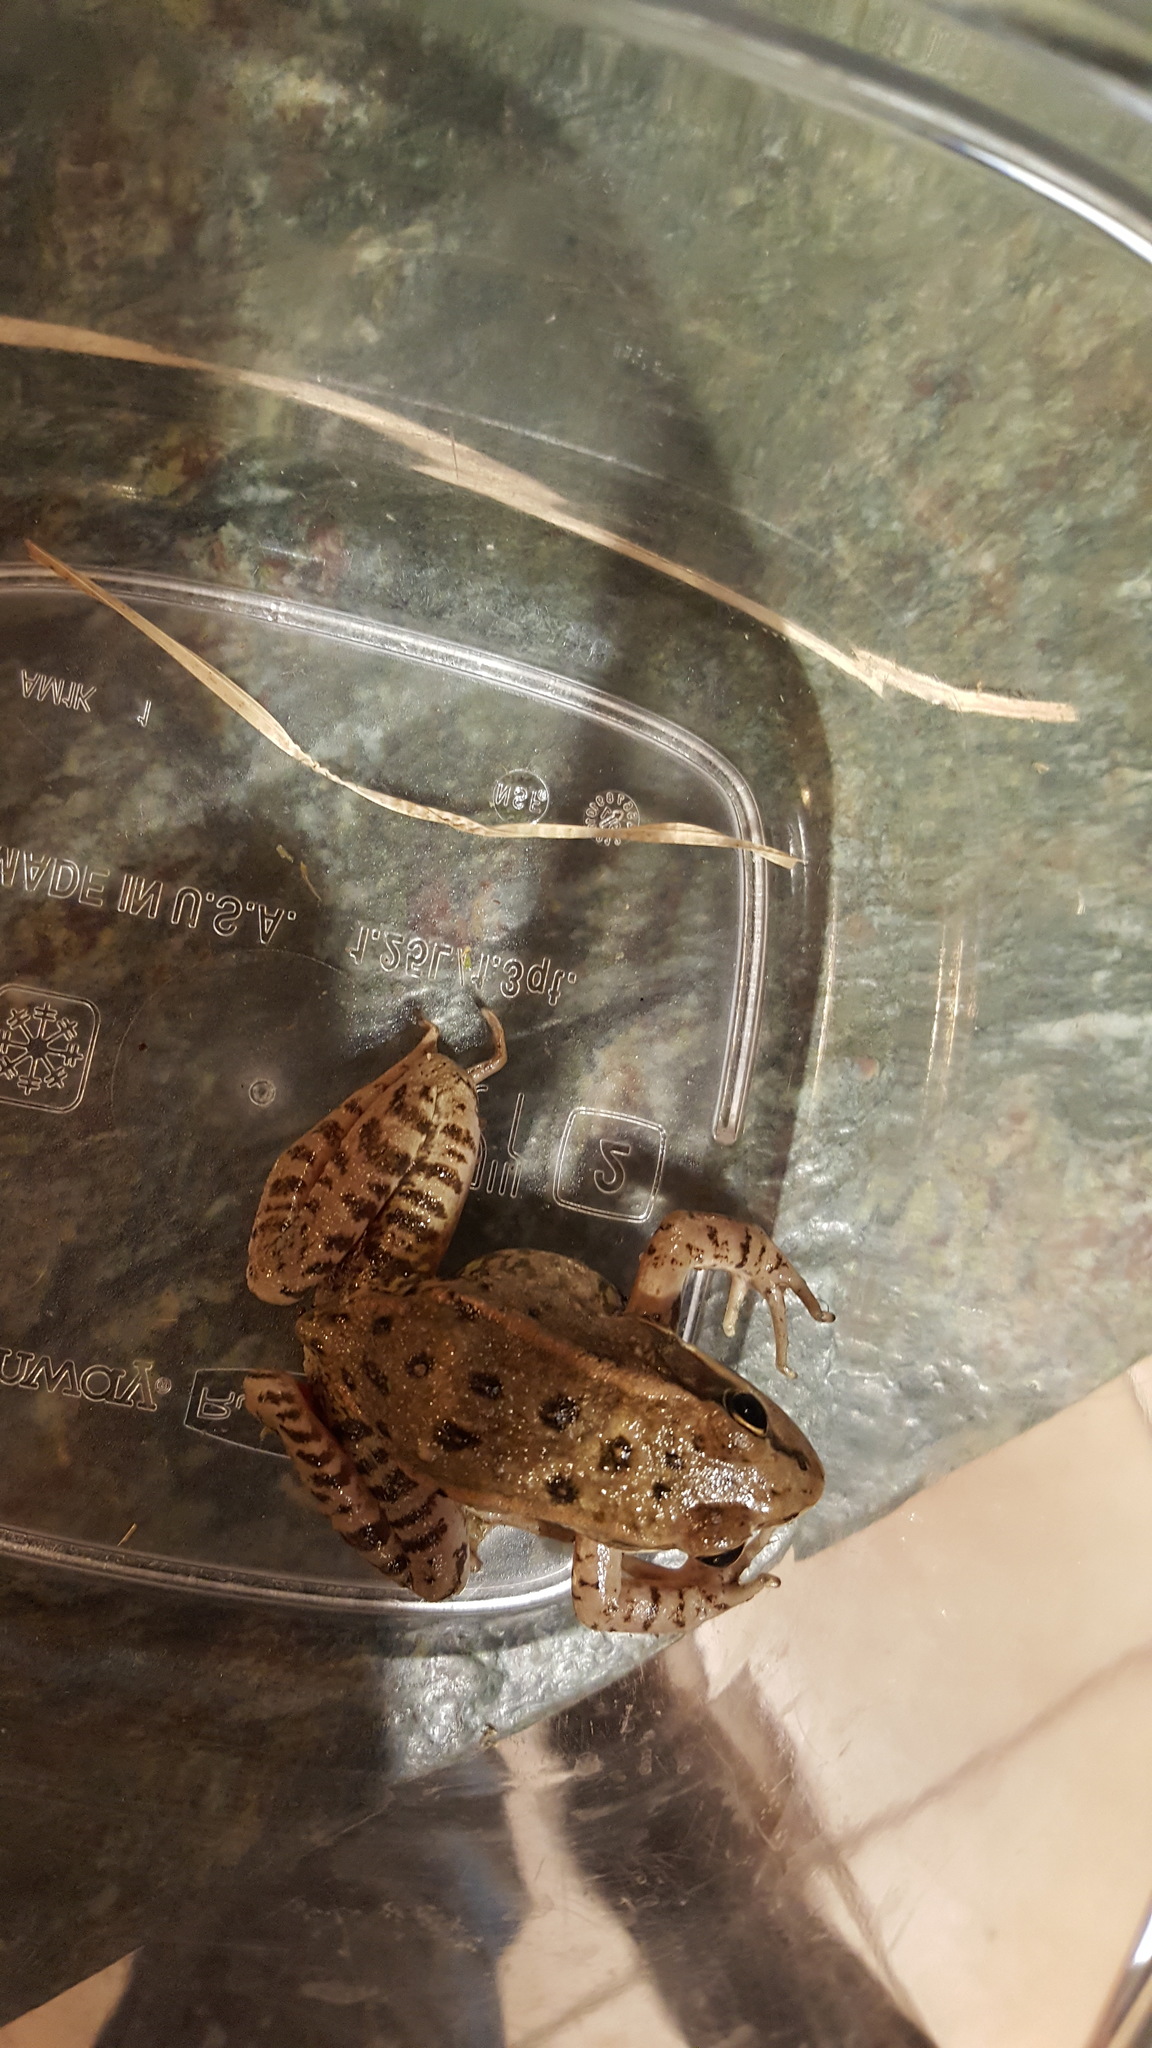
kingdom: Animalia
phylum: Chordata
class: Amphibia
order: Anura
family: Ranidae
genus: Rana
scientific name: Rana draytonii
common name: California red-legged frog
